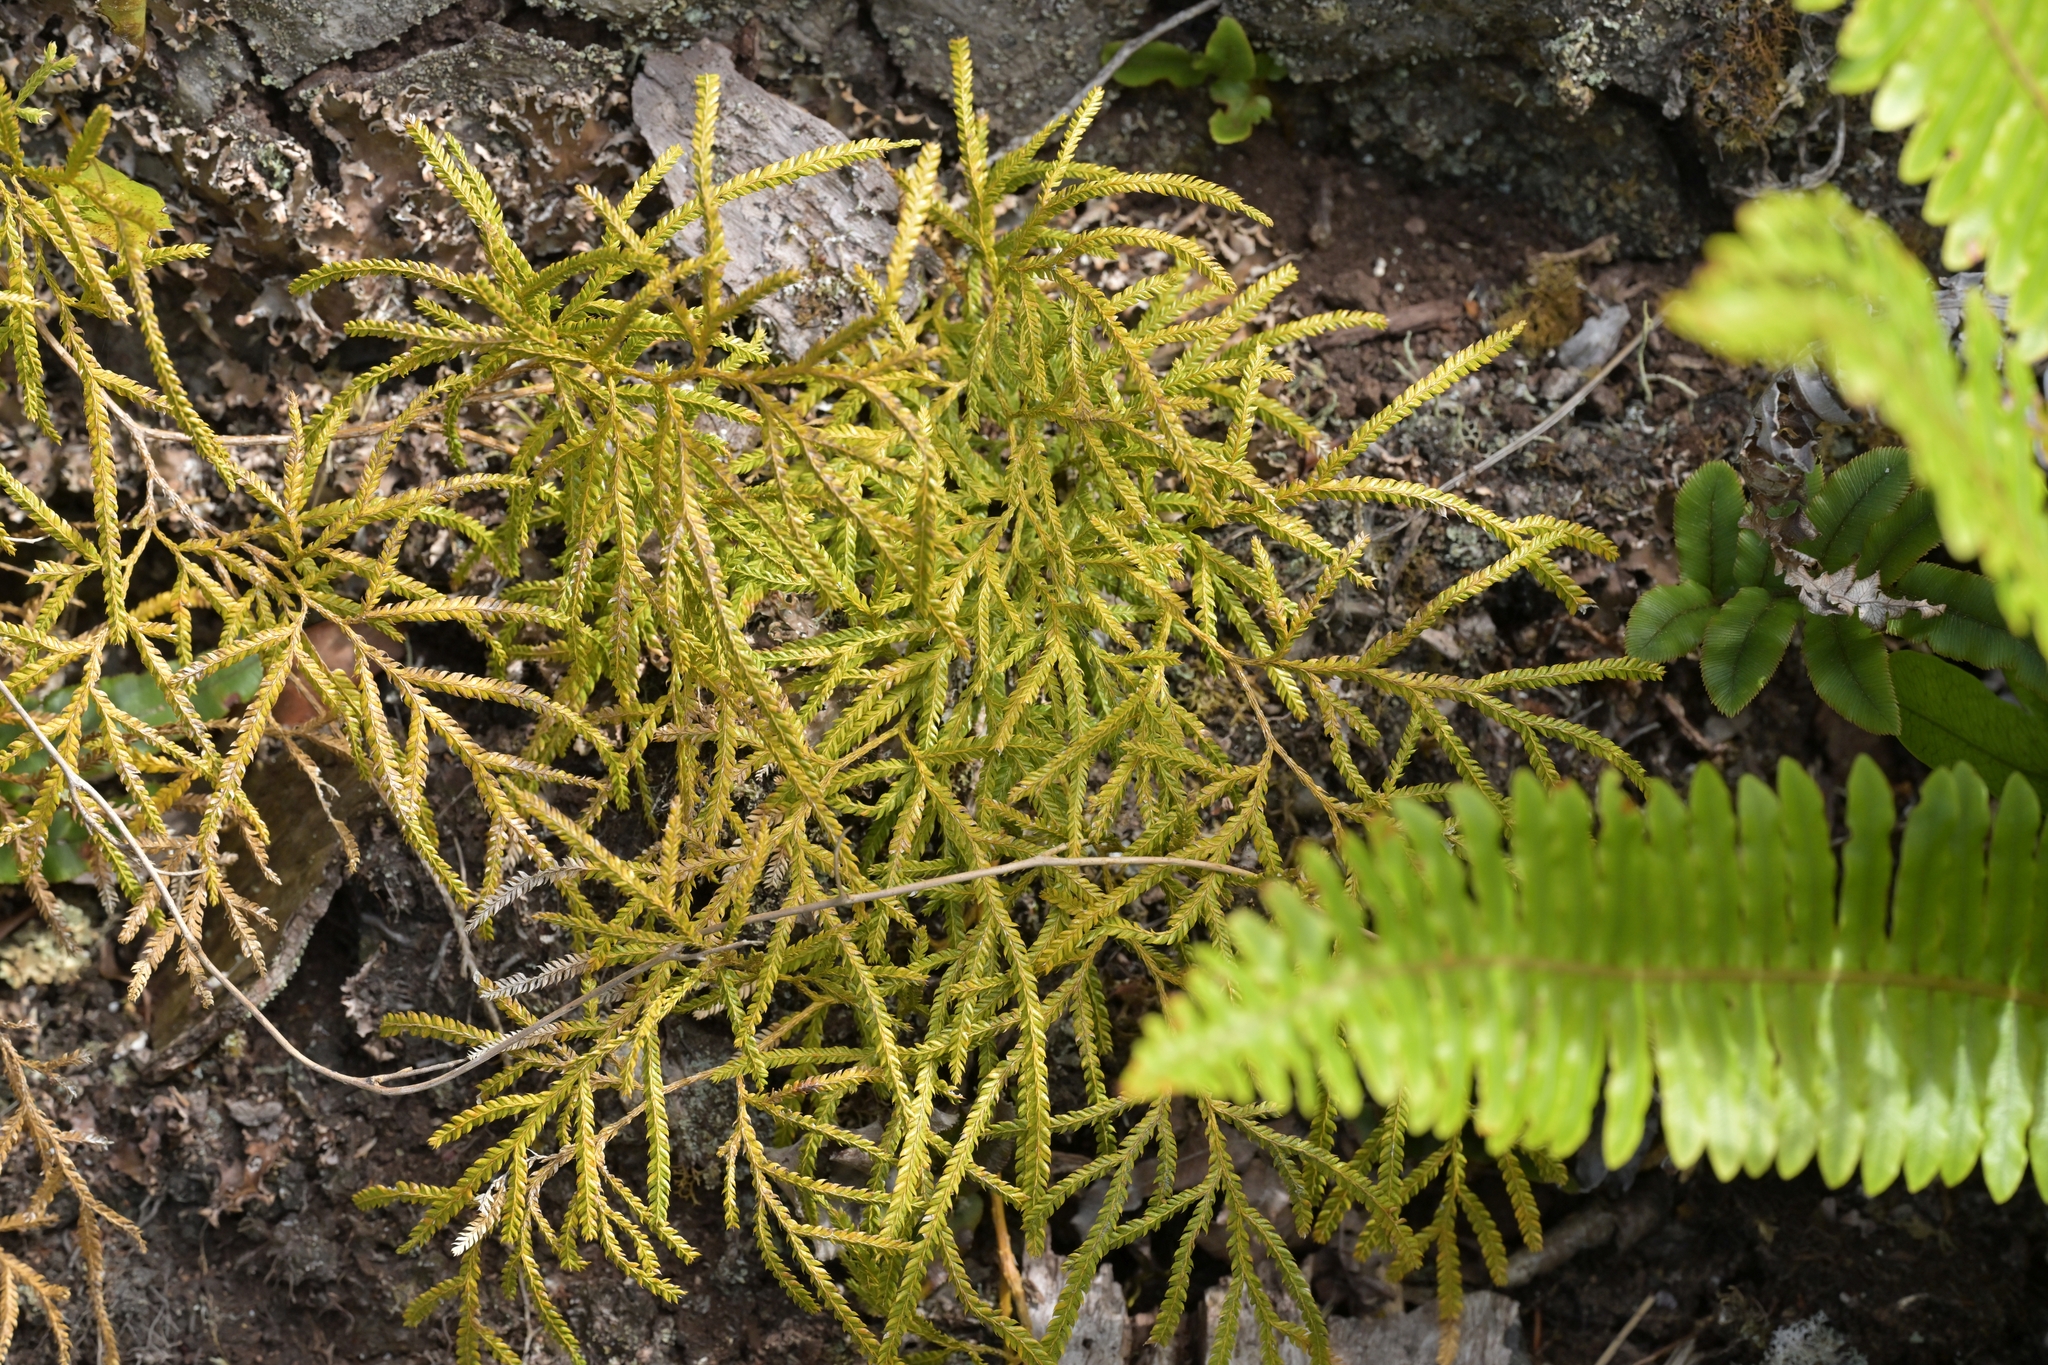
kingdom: Plantae
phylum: Tracheophyta
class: Lycopodiopsida
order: Lycopodiales
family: Lycopodiaceae
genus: Lycopodium
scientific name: Lycopodium volubile
